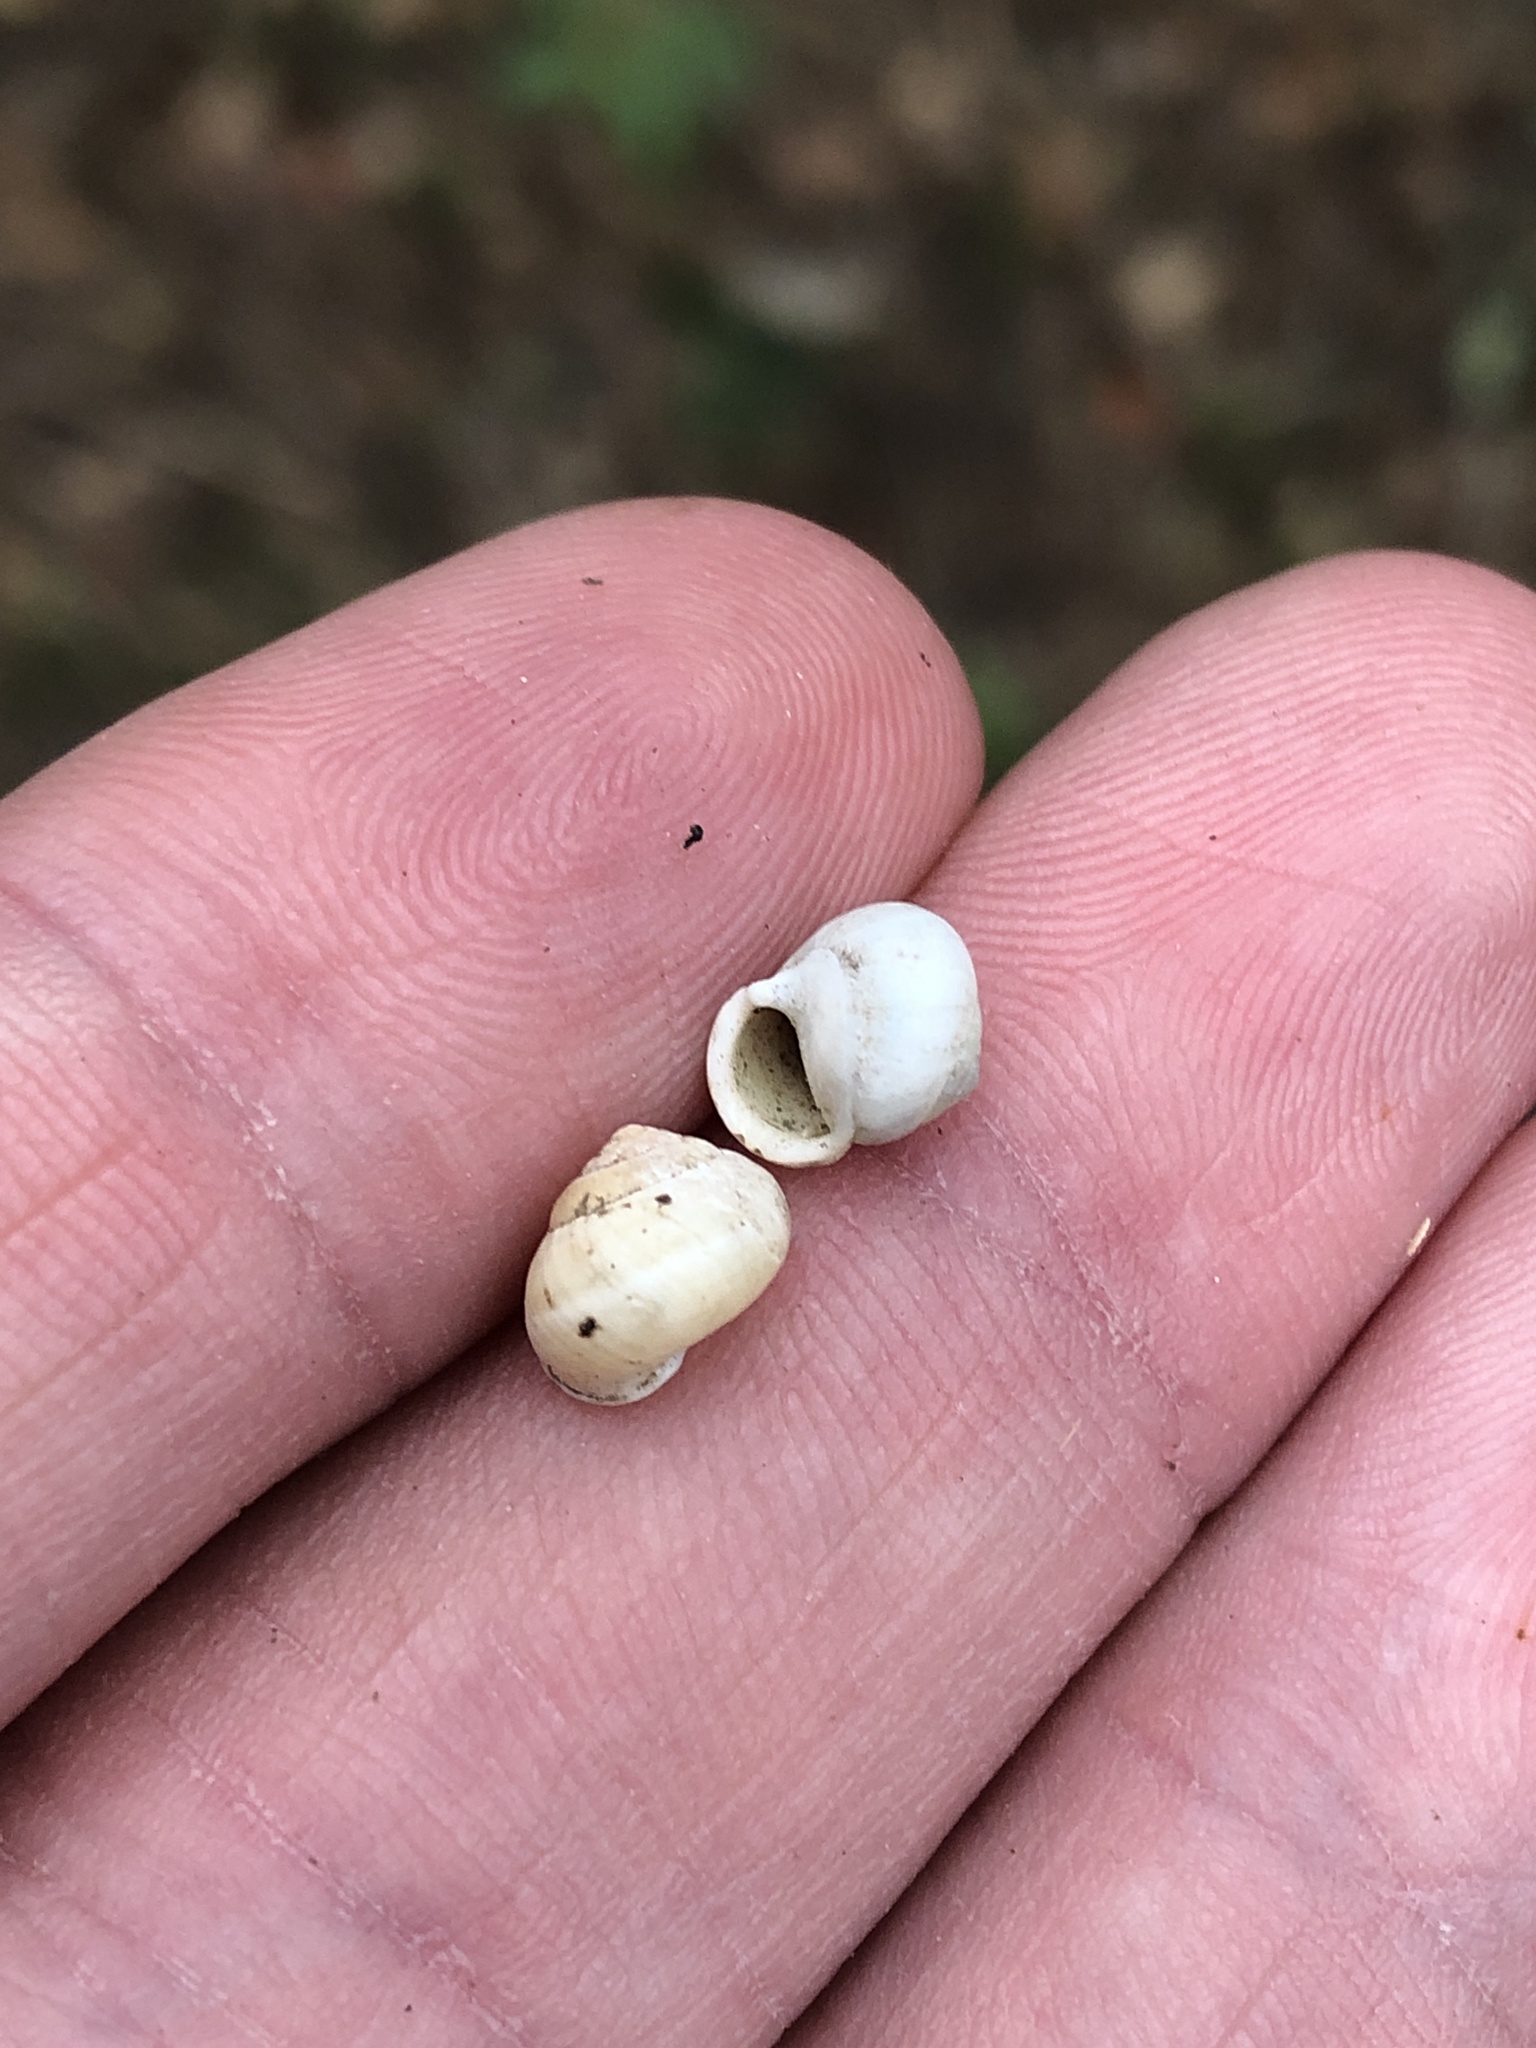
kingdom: Animalia
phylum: Mollusca
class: Gastropoda
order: Cycloneritida
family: Helicinidae
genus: Helicina
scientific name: Helicina orbiculata
